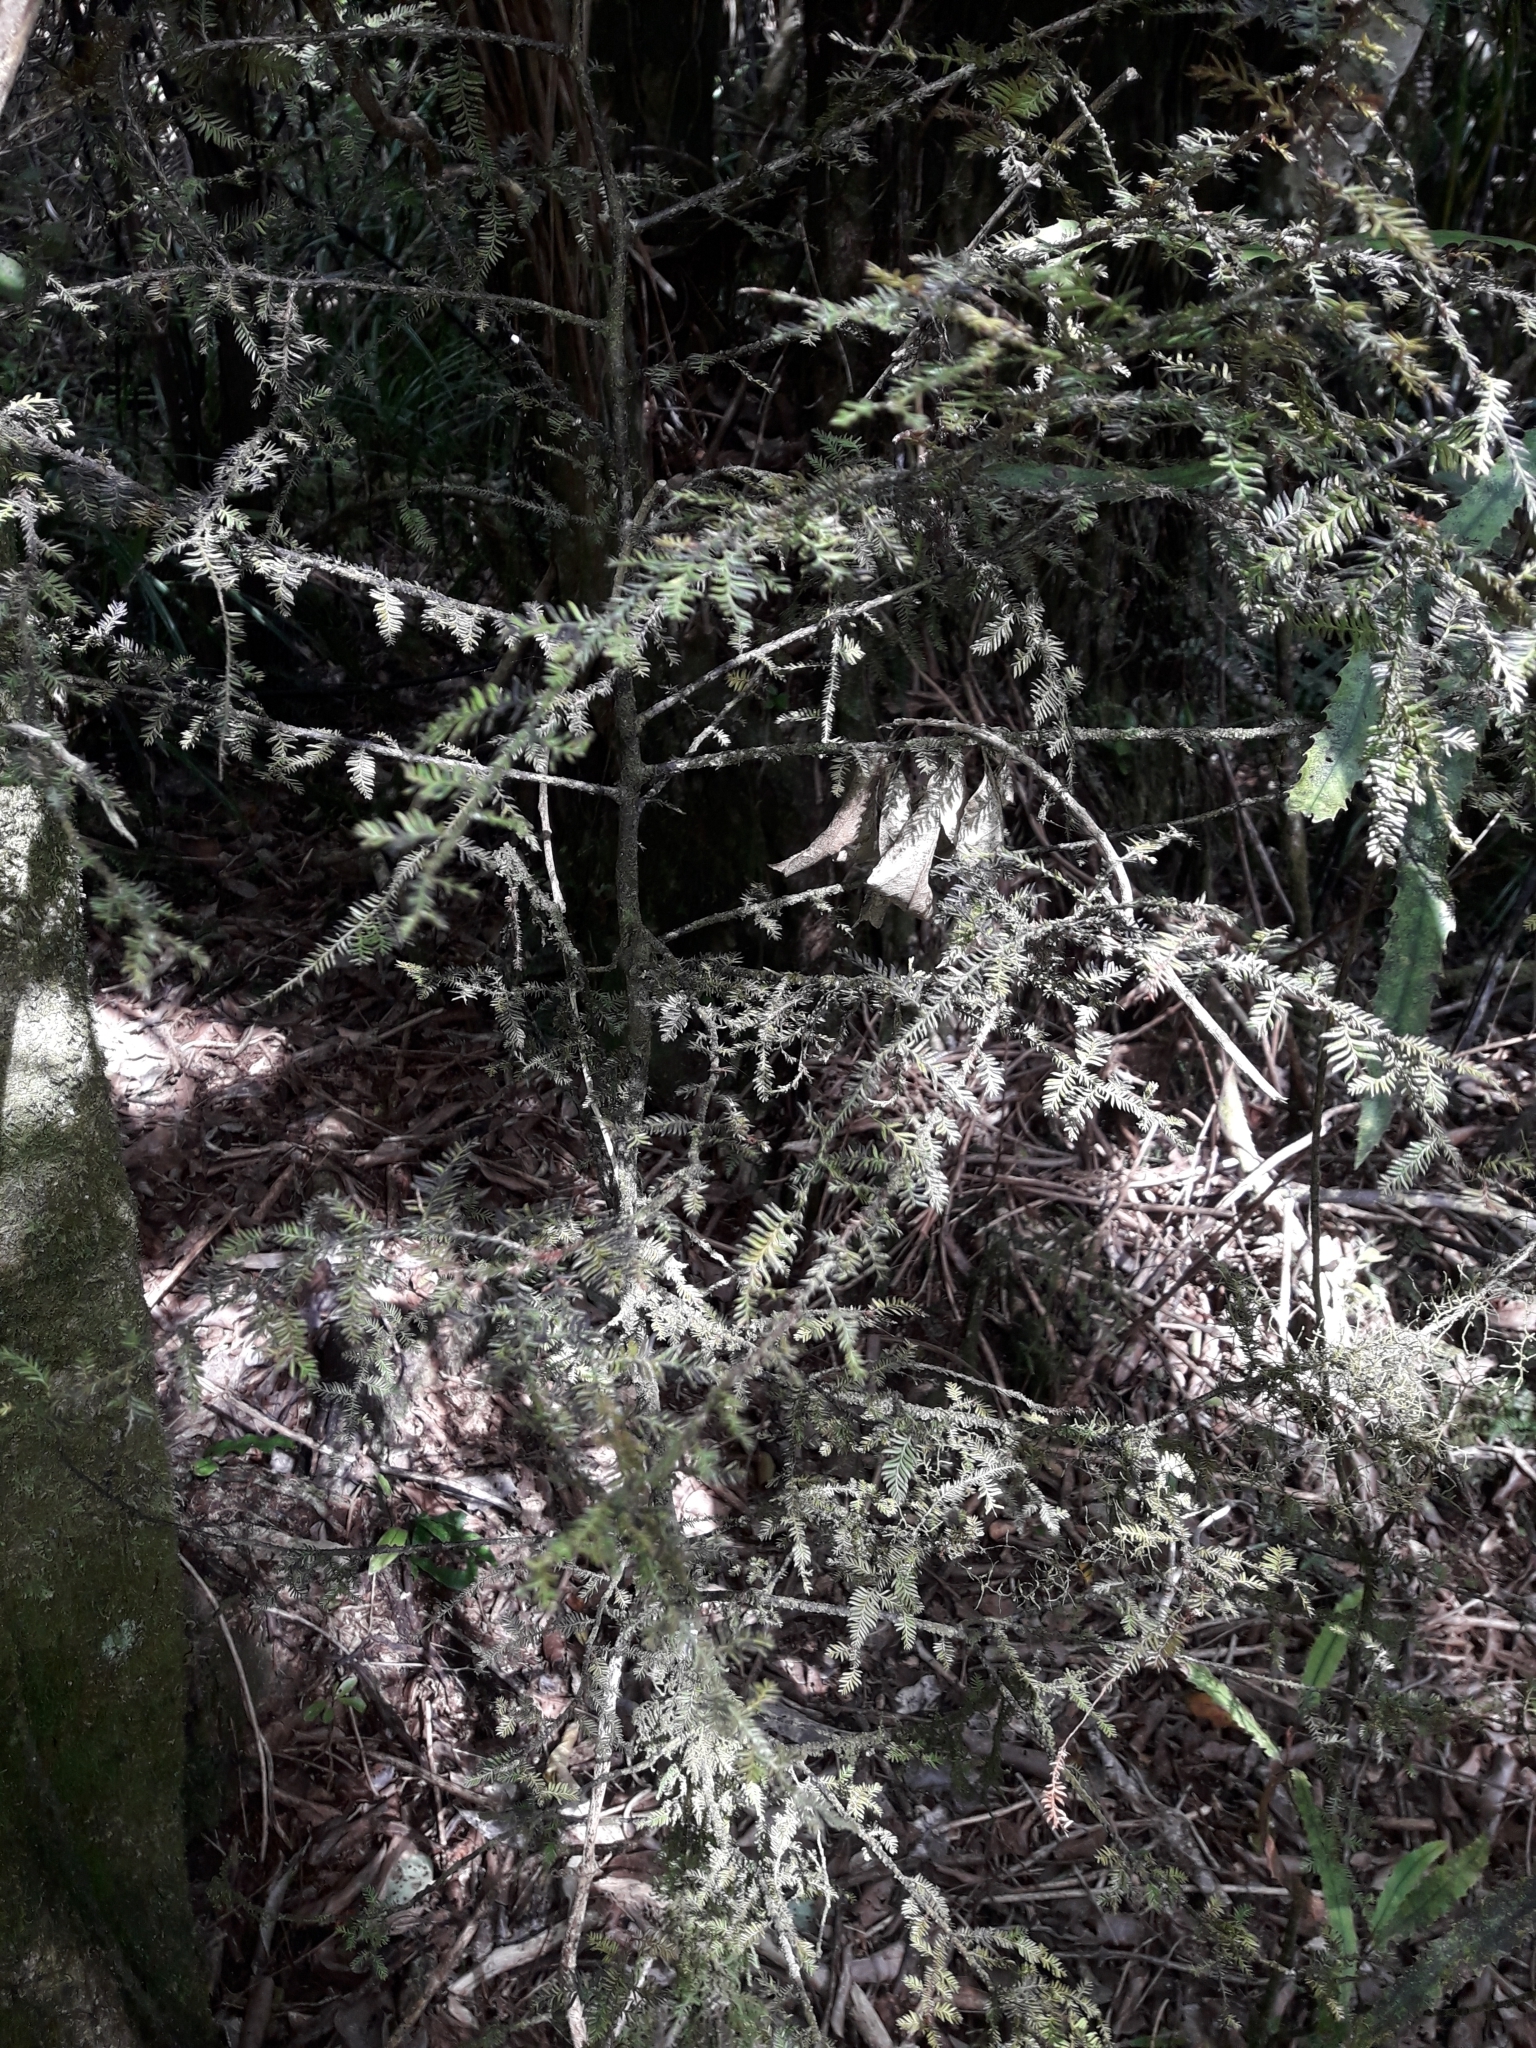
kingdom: Plantae
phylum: Tracheophyta
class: Pinopsida
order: Pinales
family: Podocarpaceae
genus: Dacrycarpus
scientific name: Dacrycarpus dacrydioides
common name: White pine
